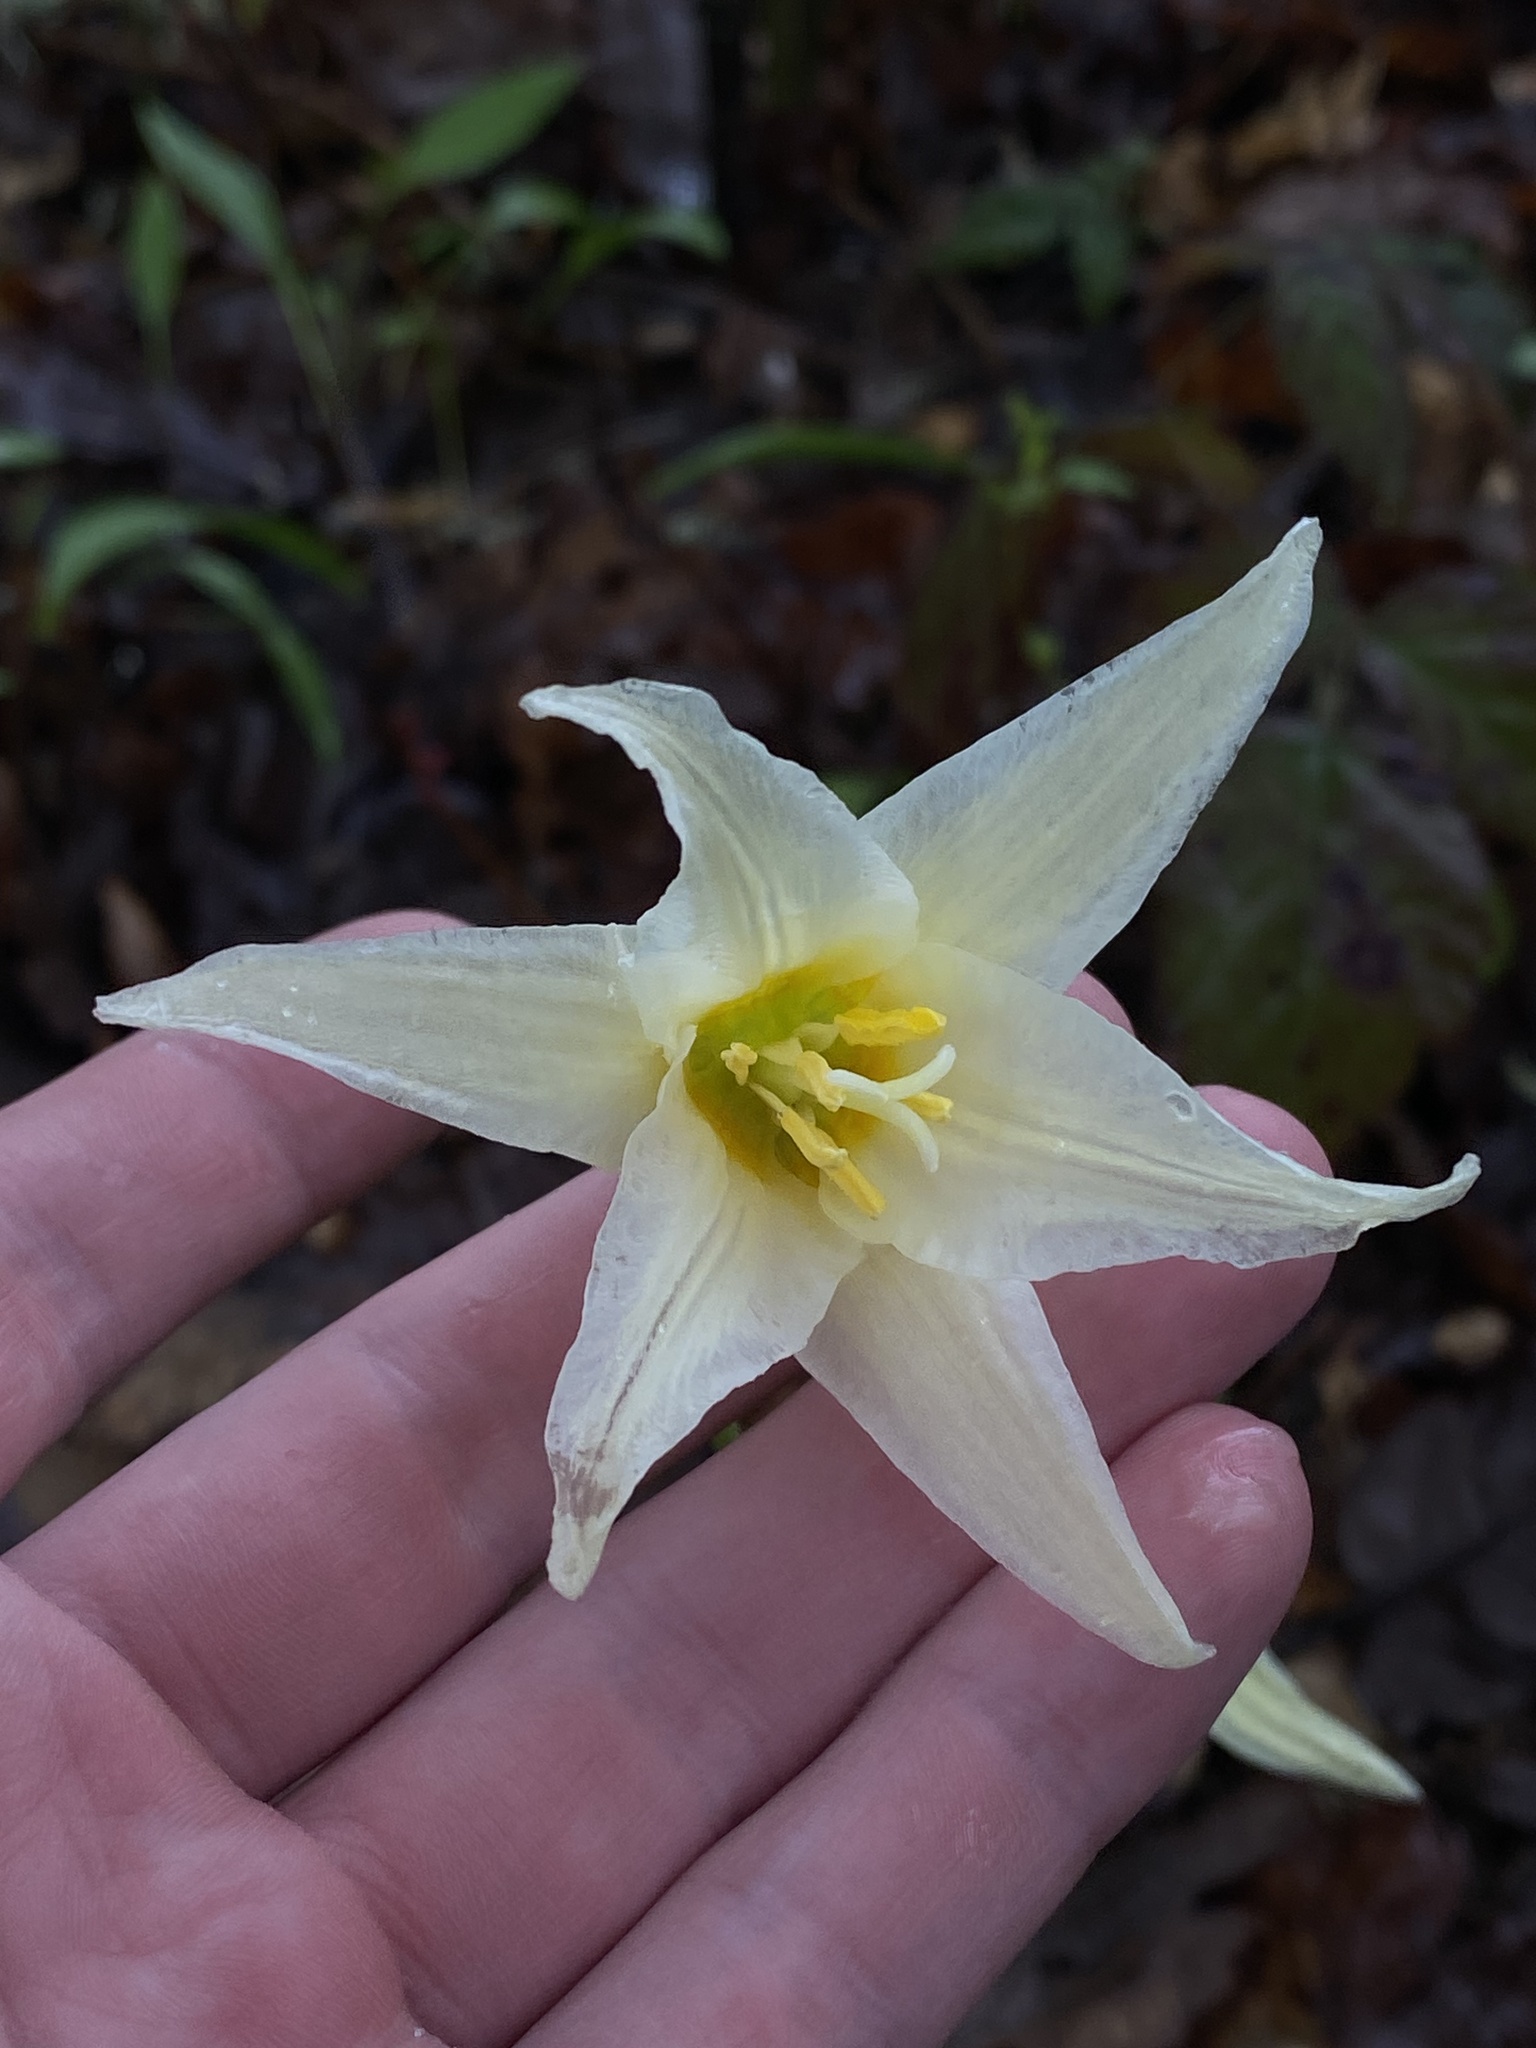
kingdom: Plantae
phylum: Tracheophyta
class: Liliopsida
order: Liliales
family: Liliaceae
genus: Erythronium
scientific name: Erythronium oregonum
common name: Giant adder's-tongue
